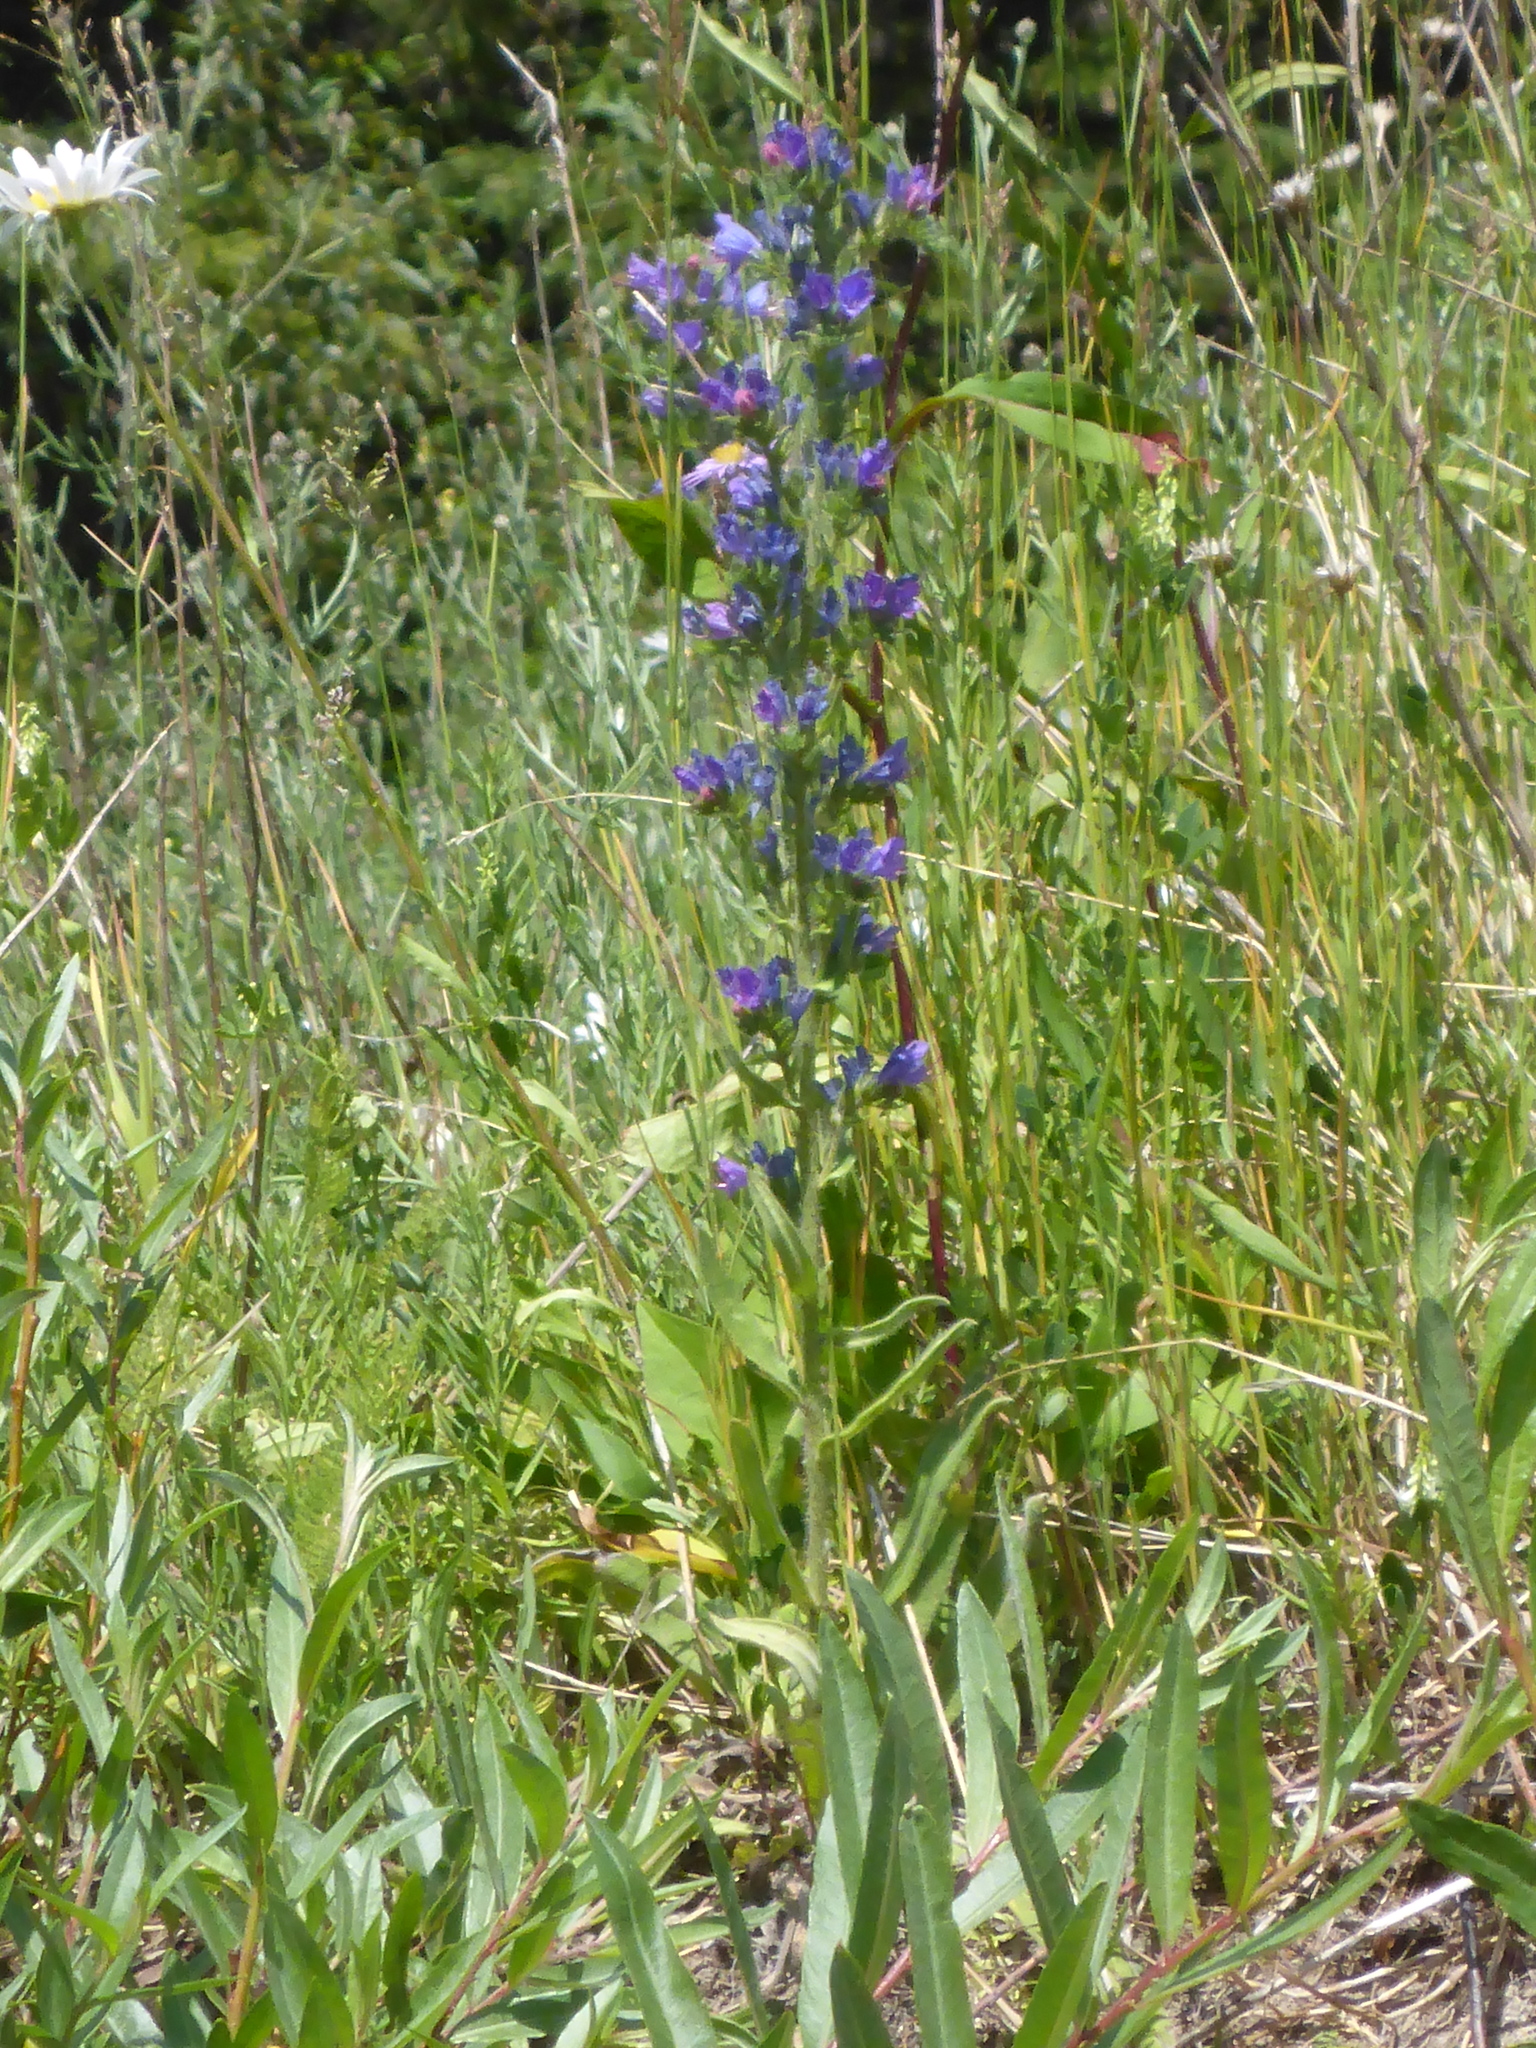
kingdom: Plantae
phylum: Tracheophyta
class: Magnoliopsida
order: Boraginales
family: Boraginaceae
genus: Echium
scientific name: Echium vulgare
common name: Common viper's bugloss
